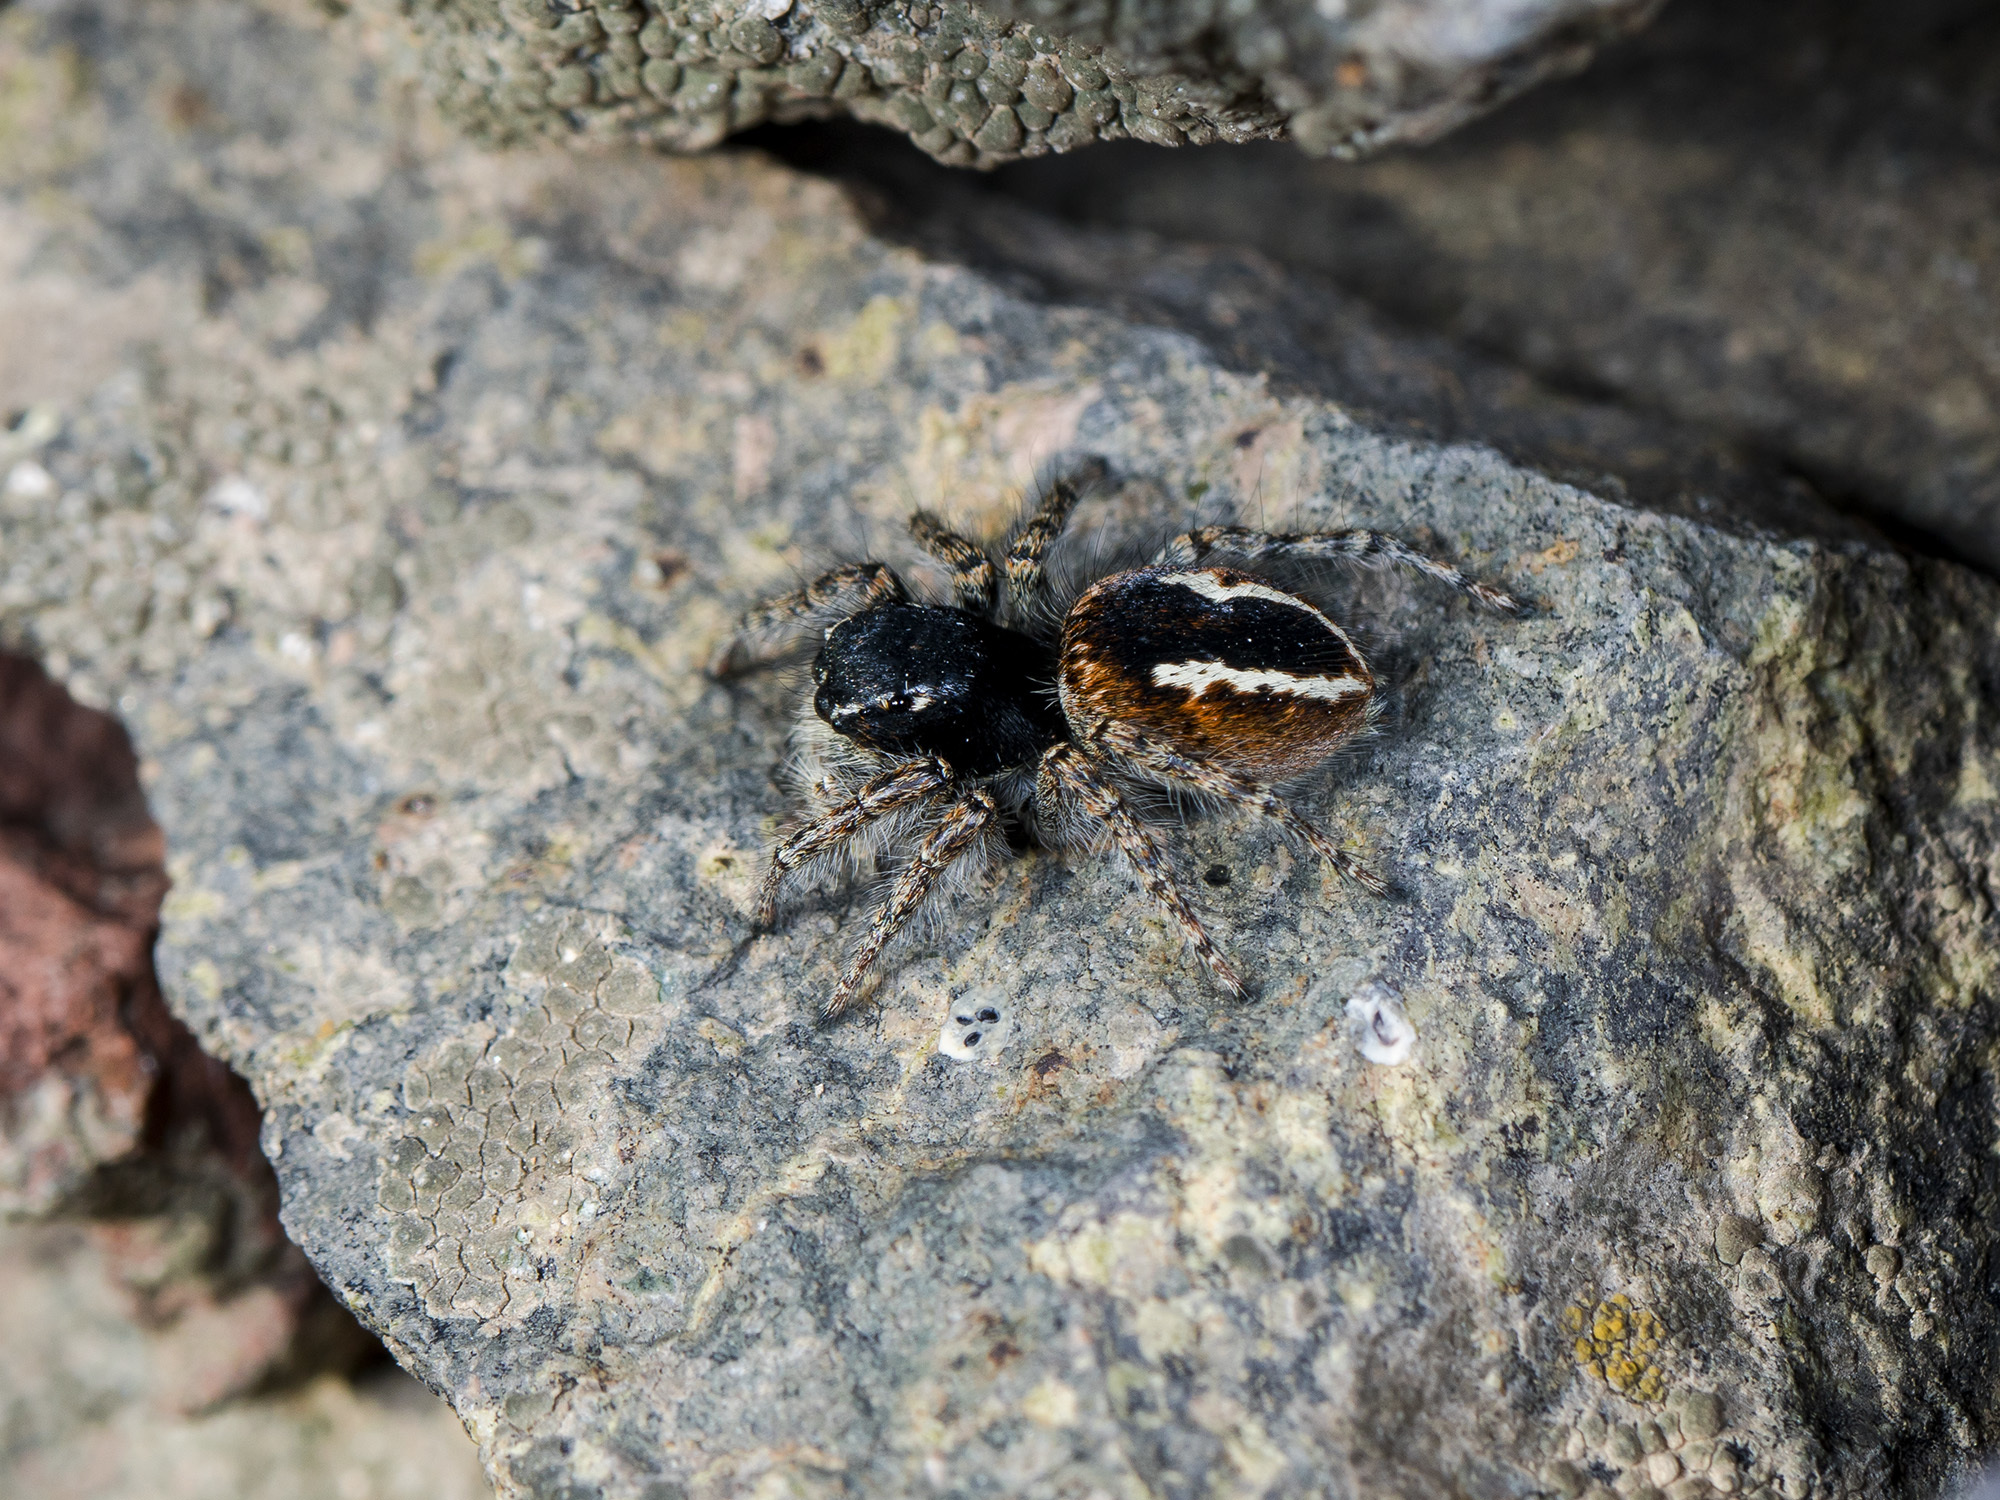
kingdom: Animalia
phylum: Arthropoda
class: Arachnida
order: Araneae
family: Salticidae
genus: Philaeus
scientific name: Philaeus chrysops
